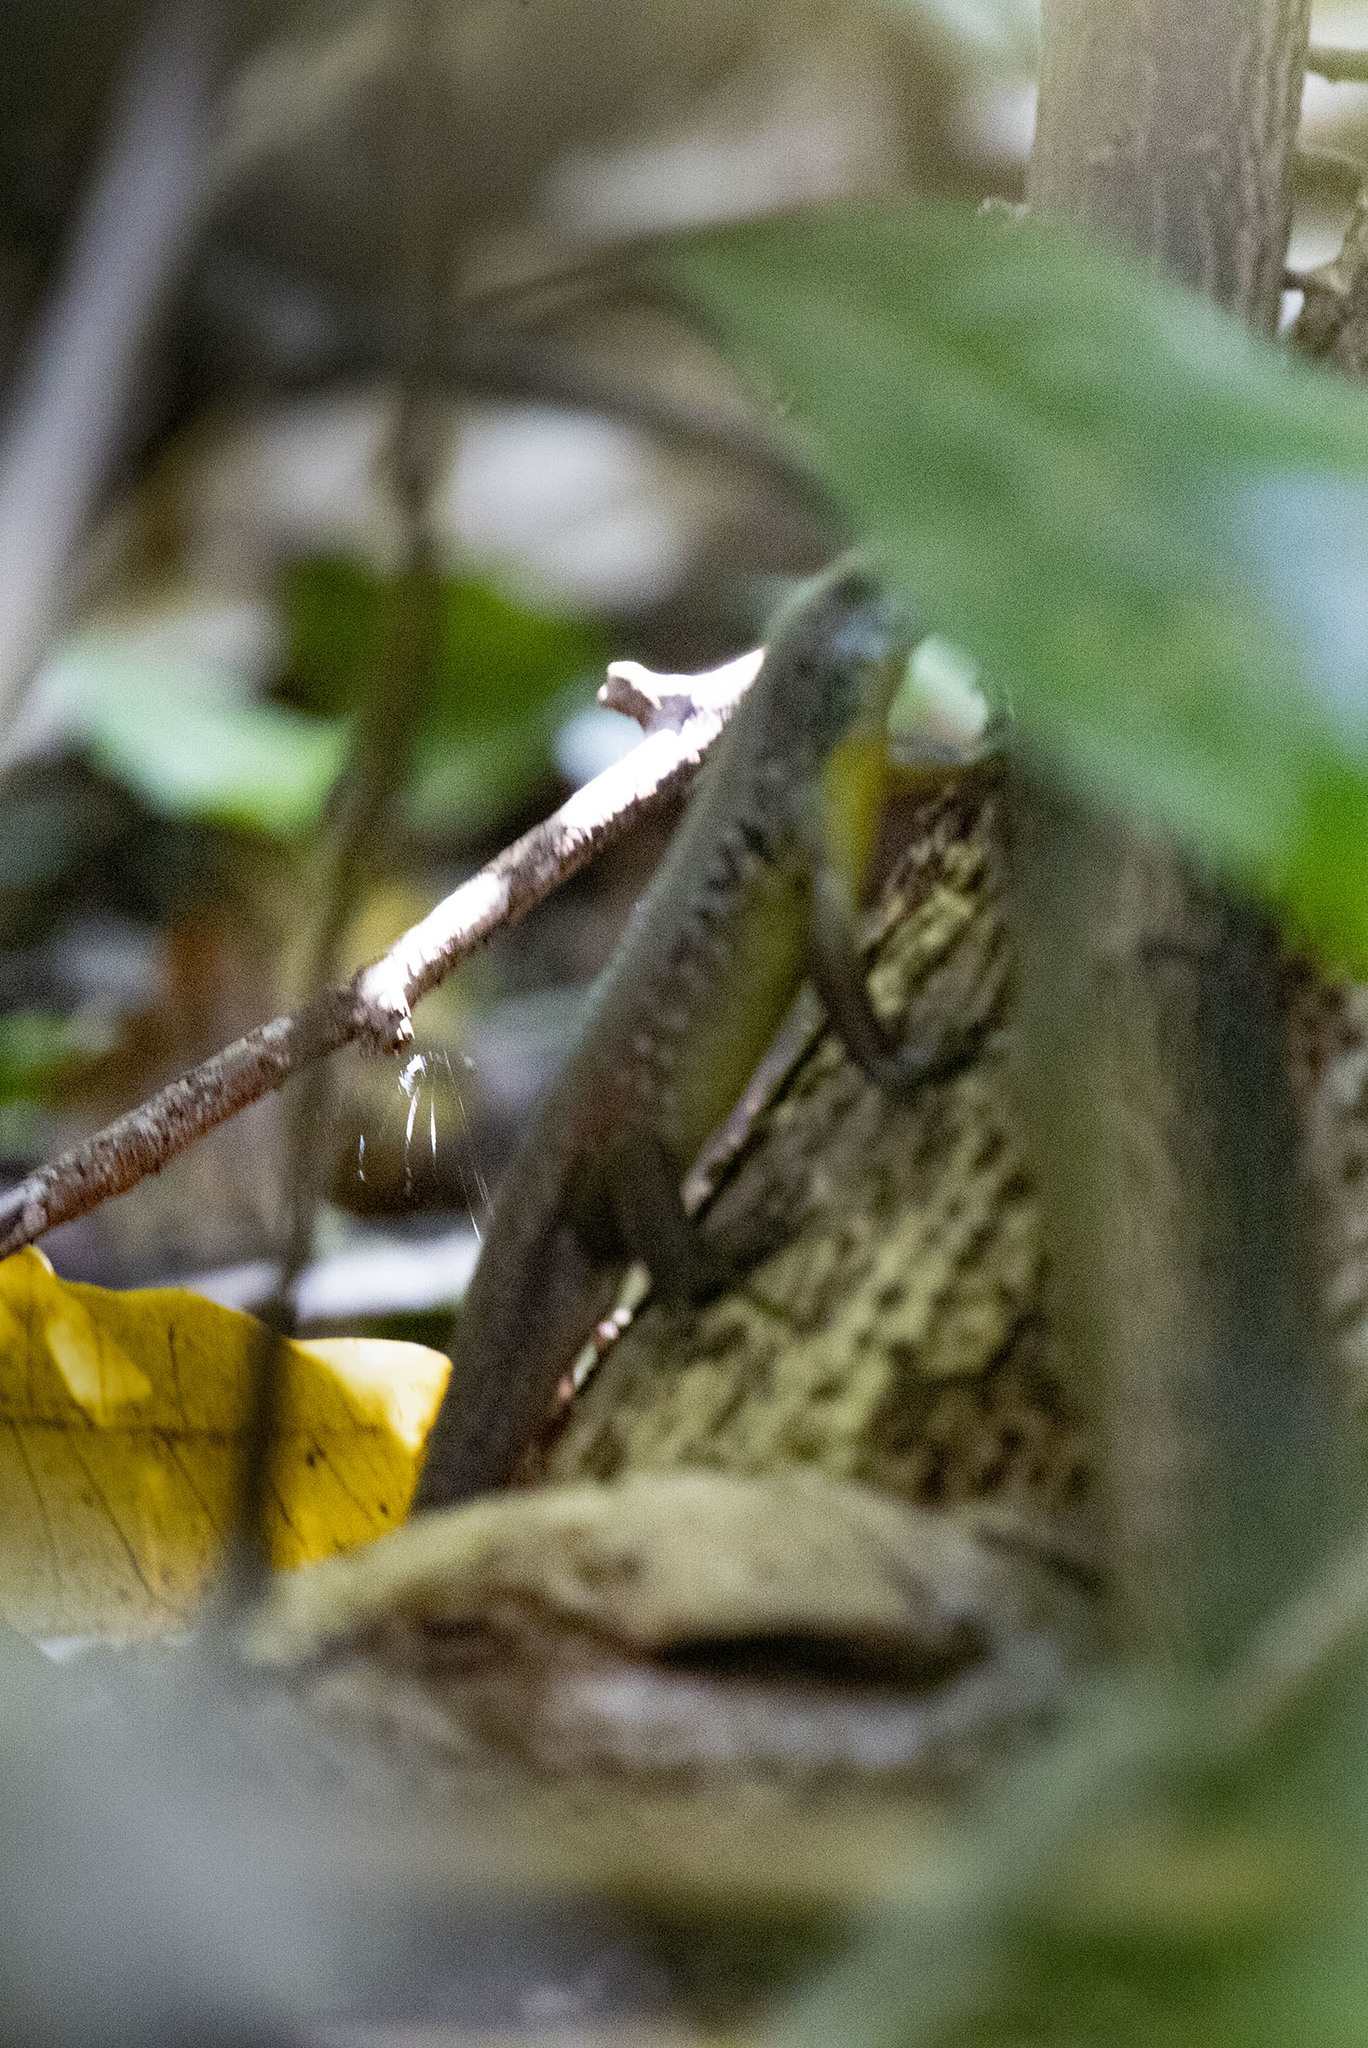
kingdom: Animalia
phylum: Chordata
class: Squamata
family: Scincidae
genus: Eutropis
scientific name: Eutropis andamanensis
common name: Andaman islands grassskink
